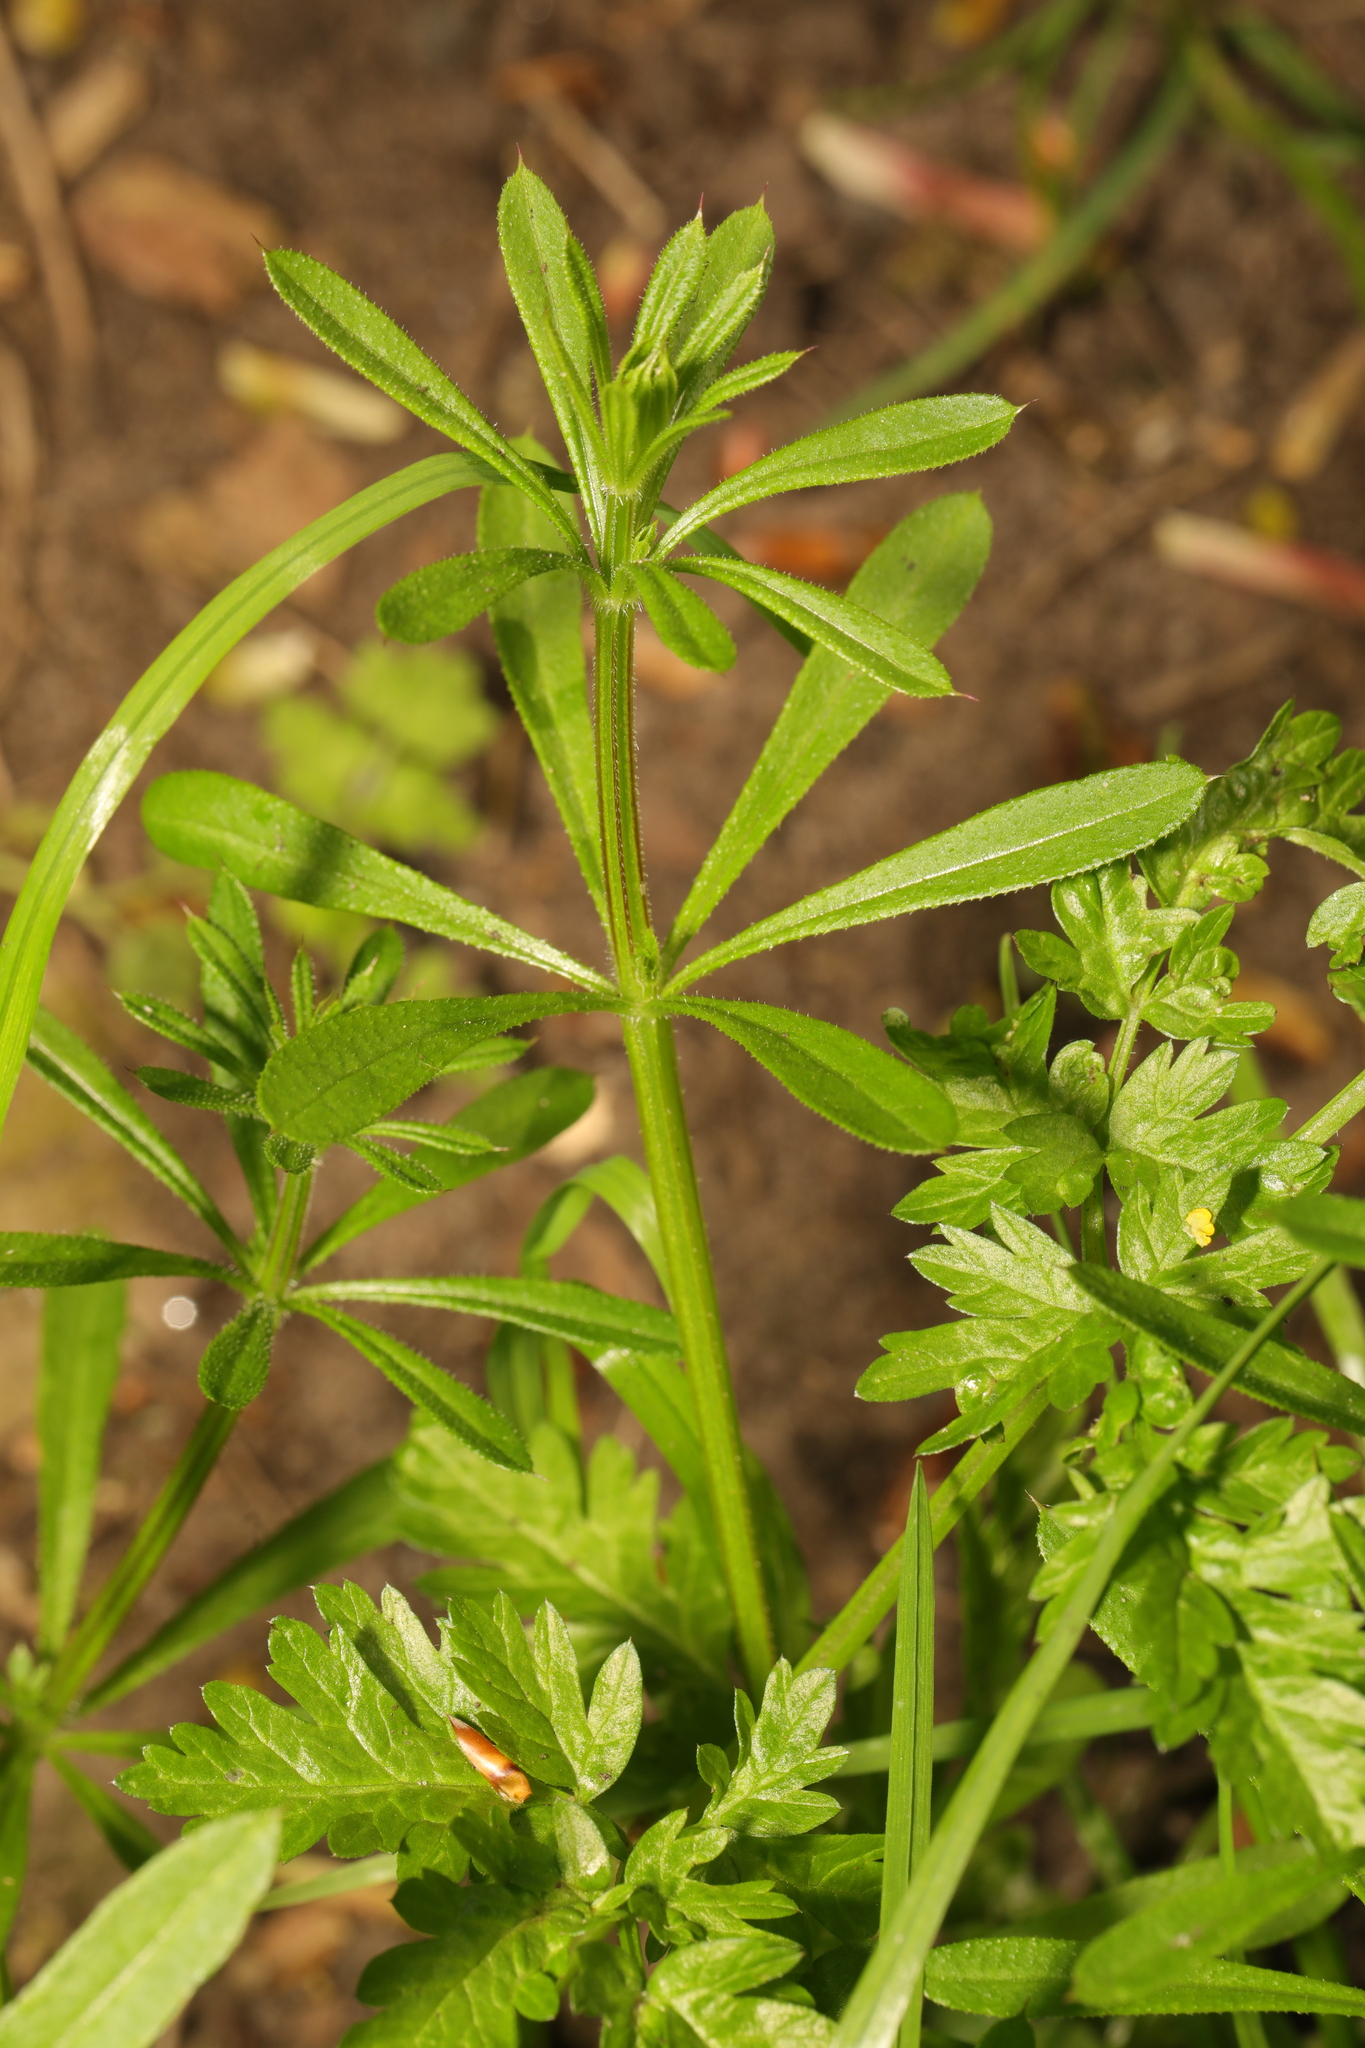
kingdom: Plantae
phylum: Tracheophyta
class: Magnoliopsida
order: Gentianales
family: Rubiaceae
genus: Galium
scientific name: Galium aparine
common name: Cleavers
